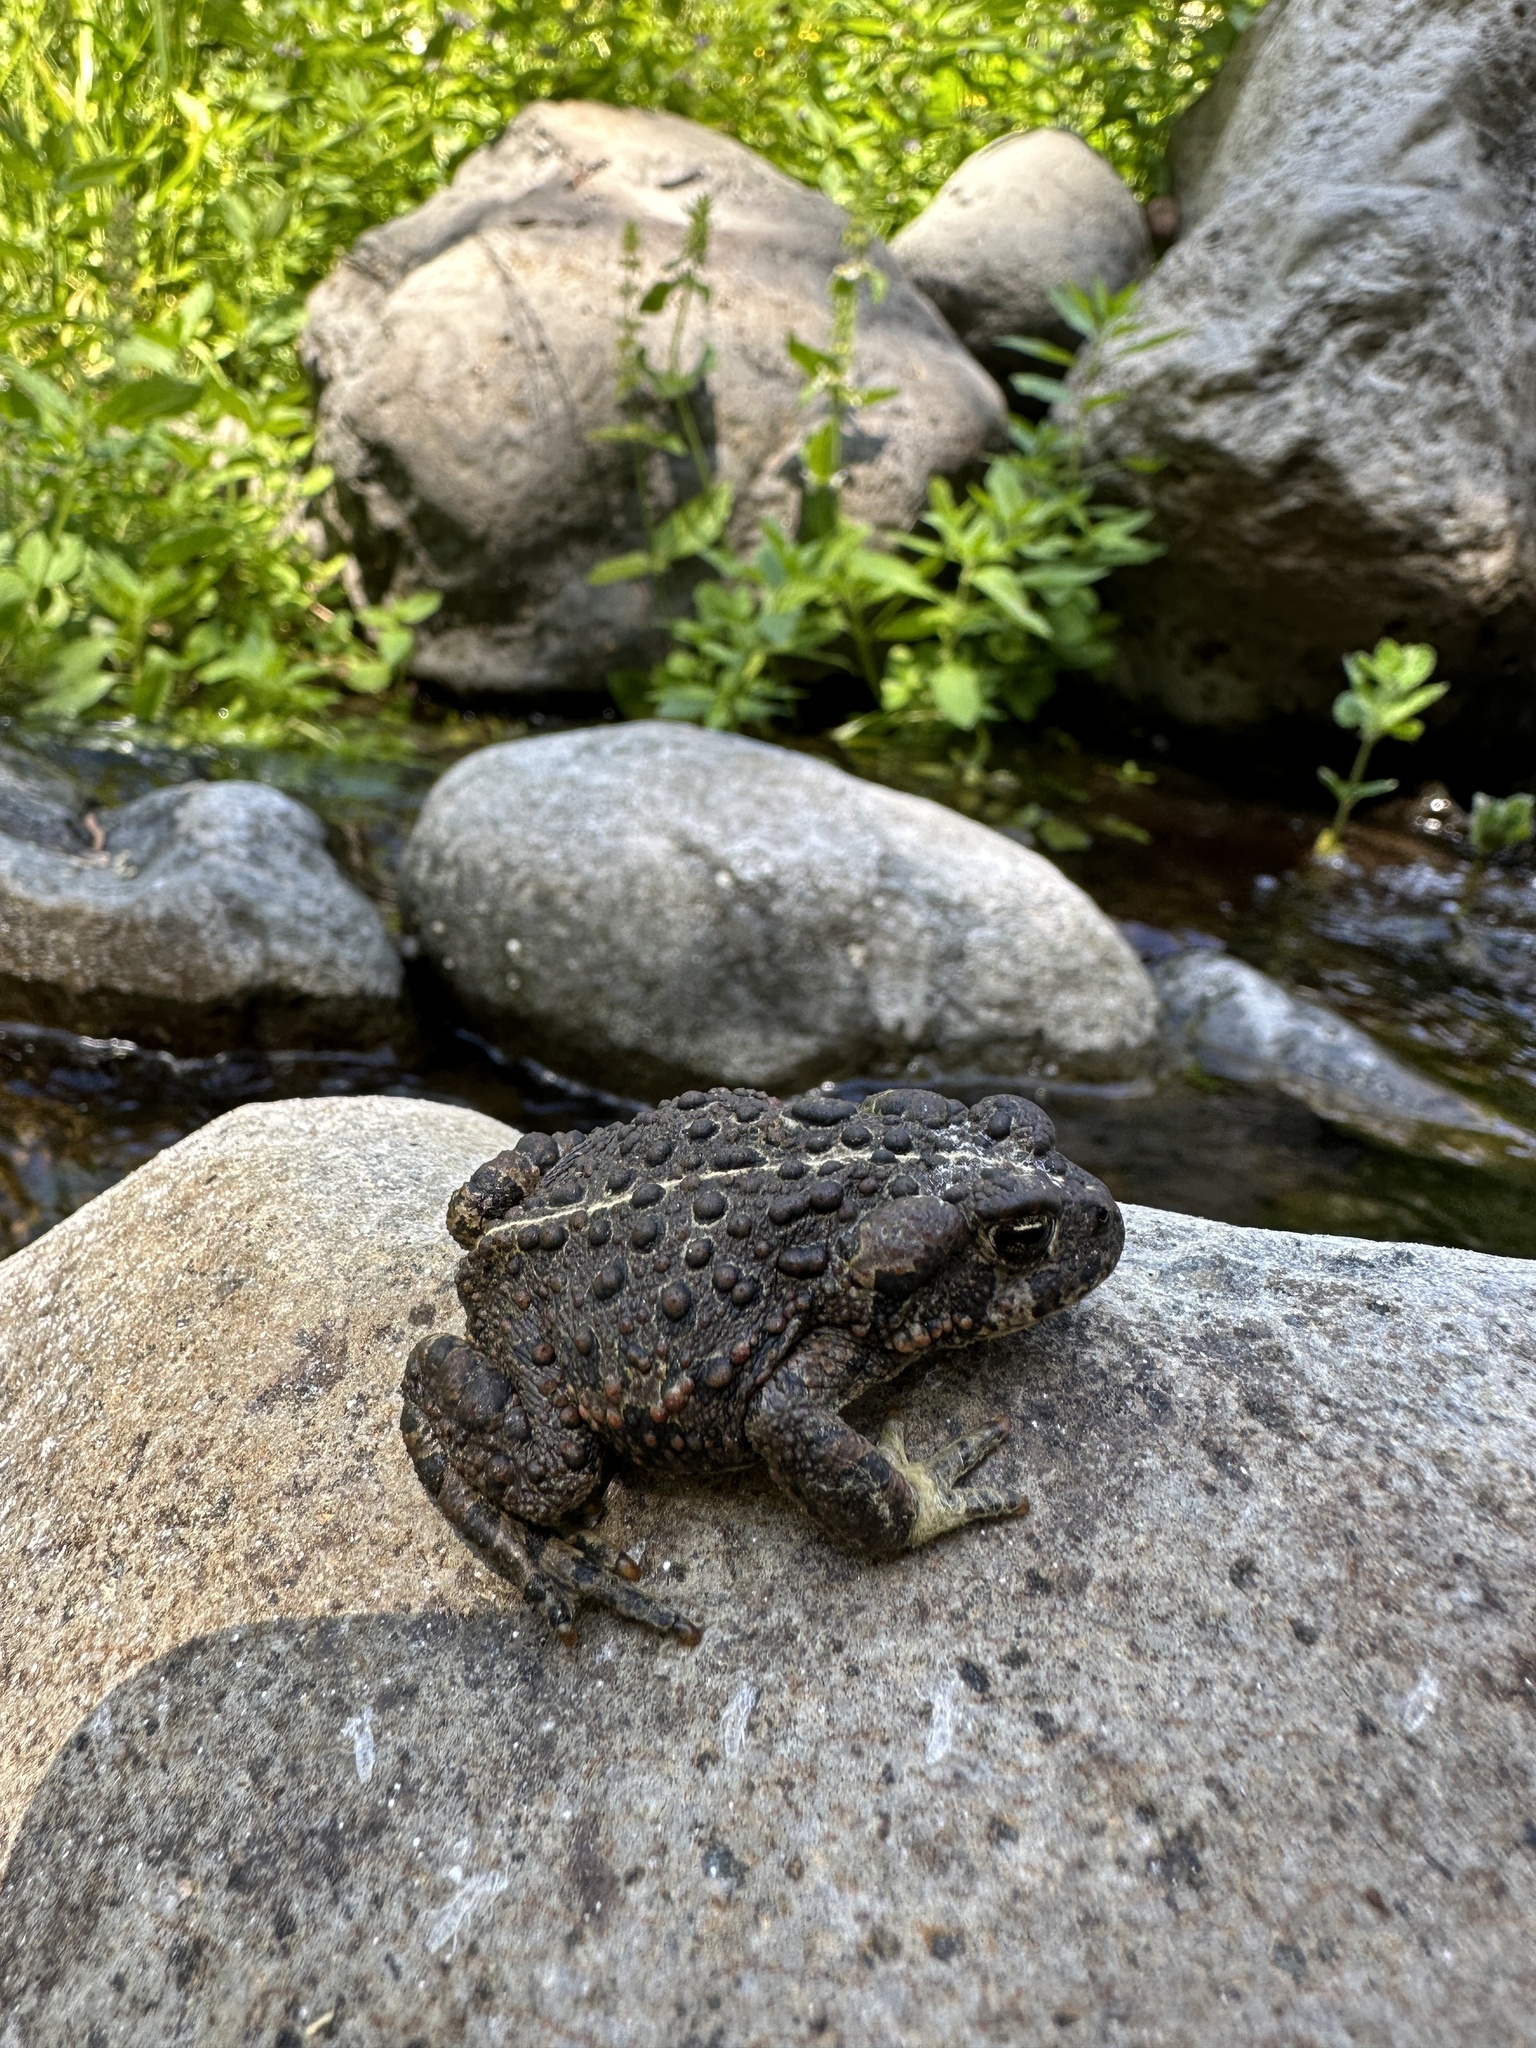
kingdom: Animalia
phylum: Chordata
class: Amphibia
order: Anura
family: Bufonidae
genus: Anaxyrus
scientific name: Anaxyrus boreas
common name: Western toad
